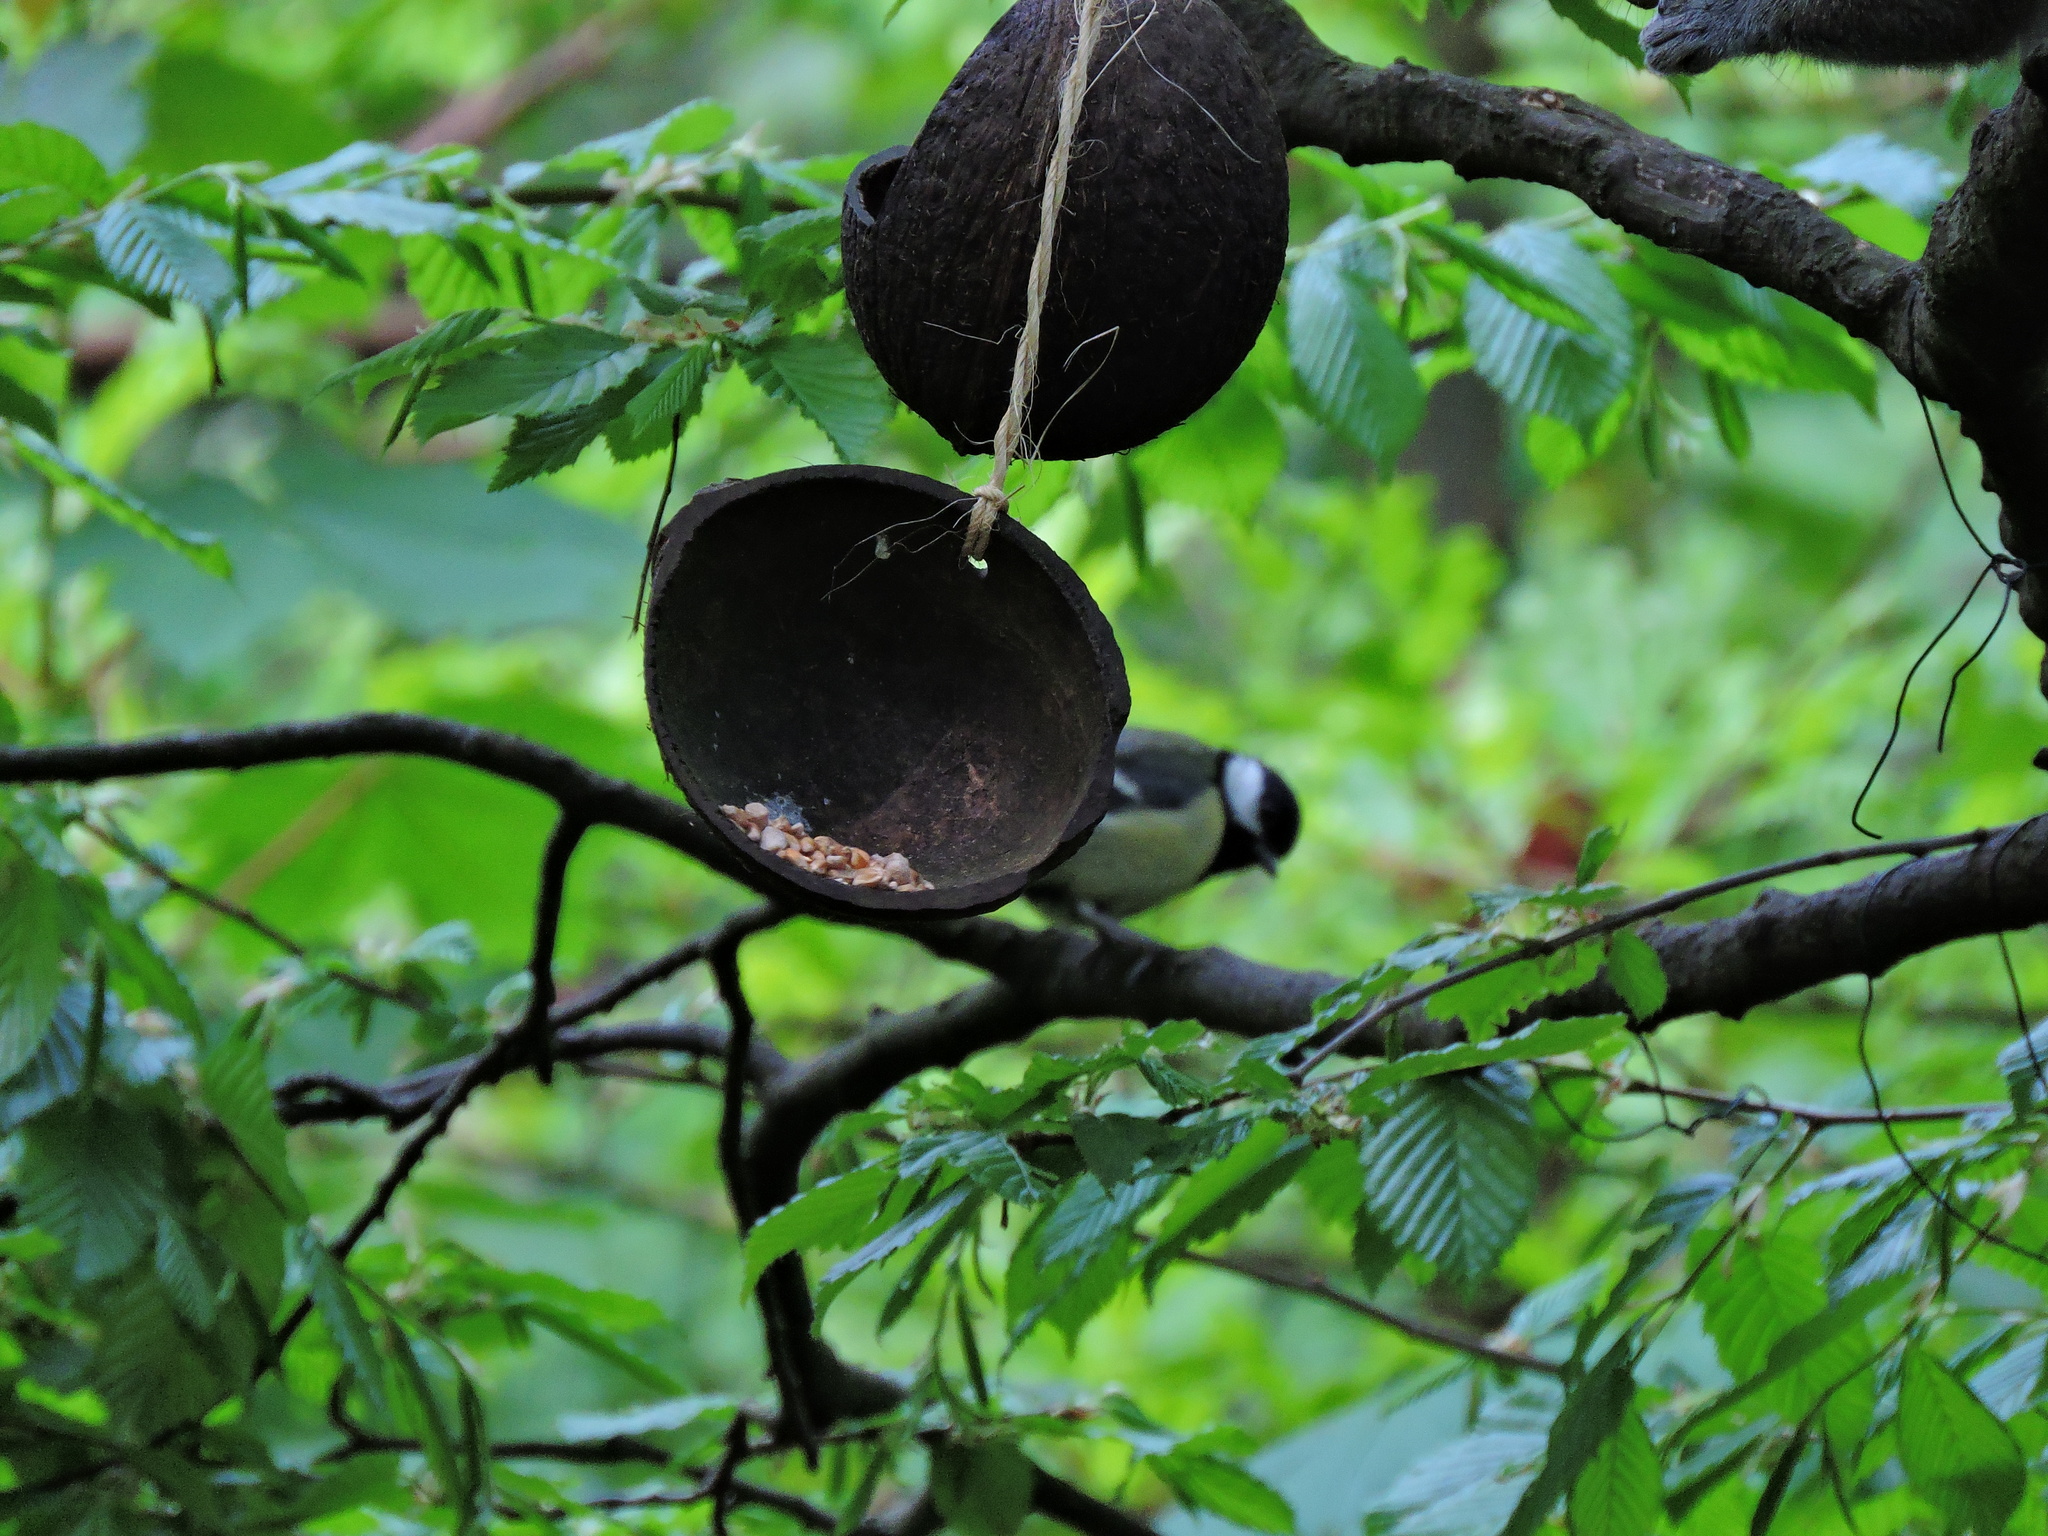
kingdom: Animalia
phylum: Chordata
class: Aves
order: Passeriformes
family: Paridae
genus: Parus
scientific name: Parus major
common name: Great tit
